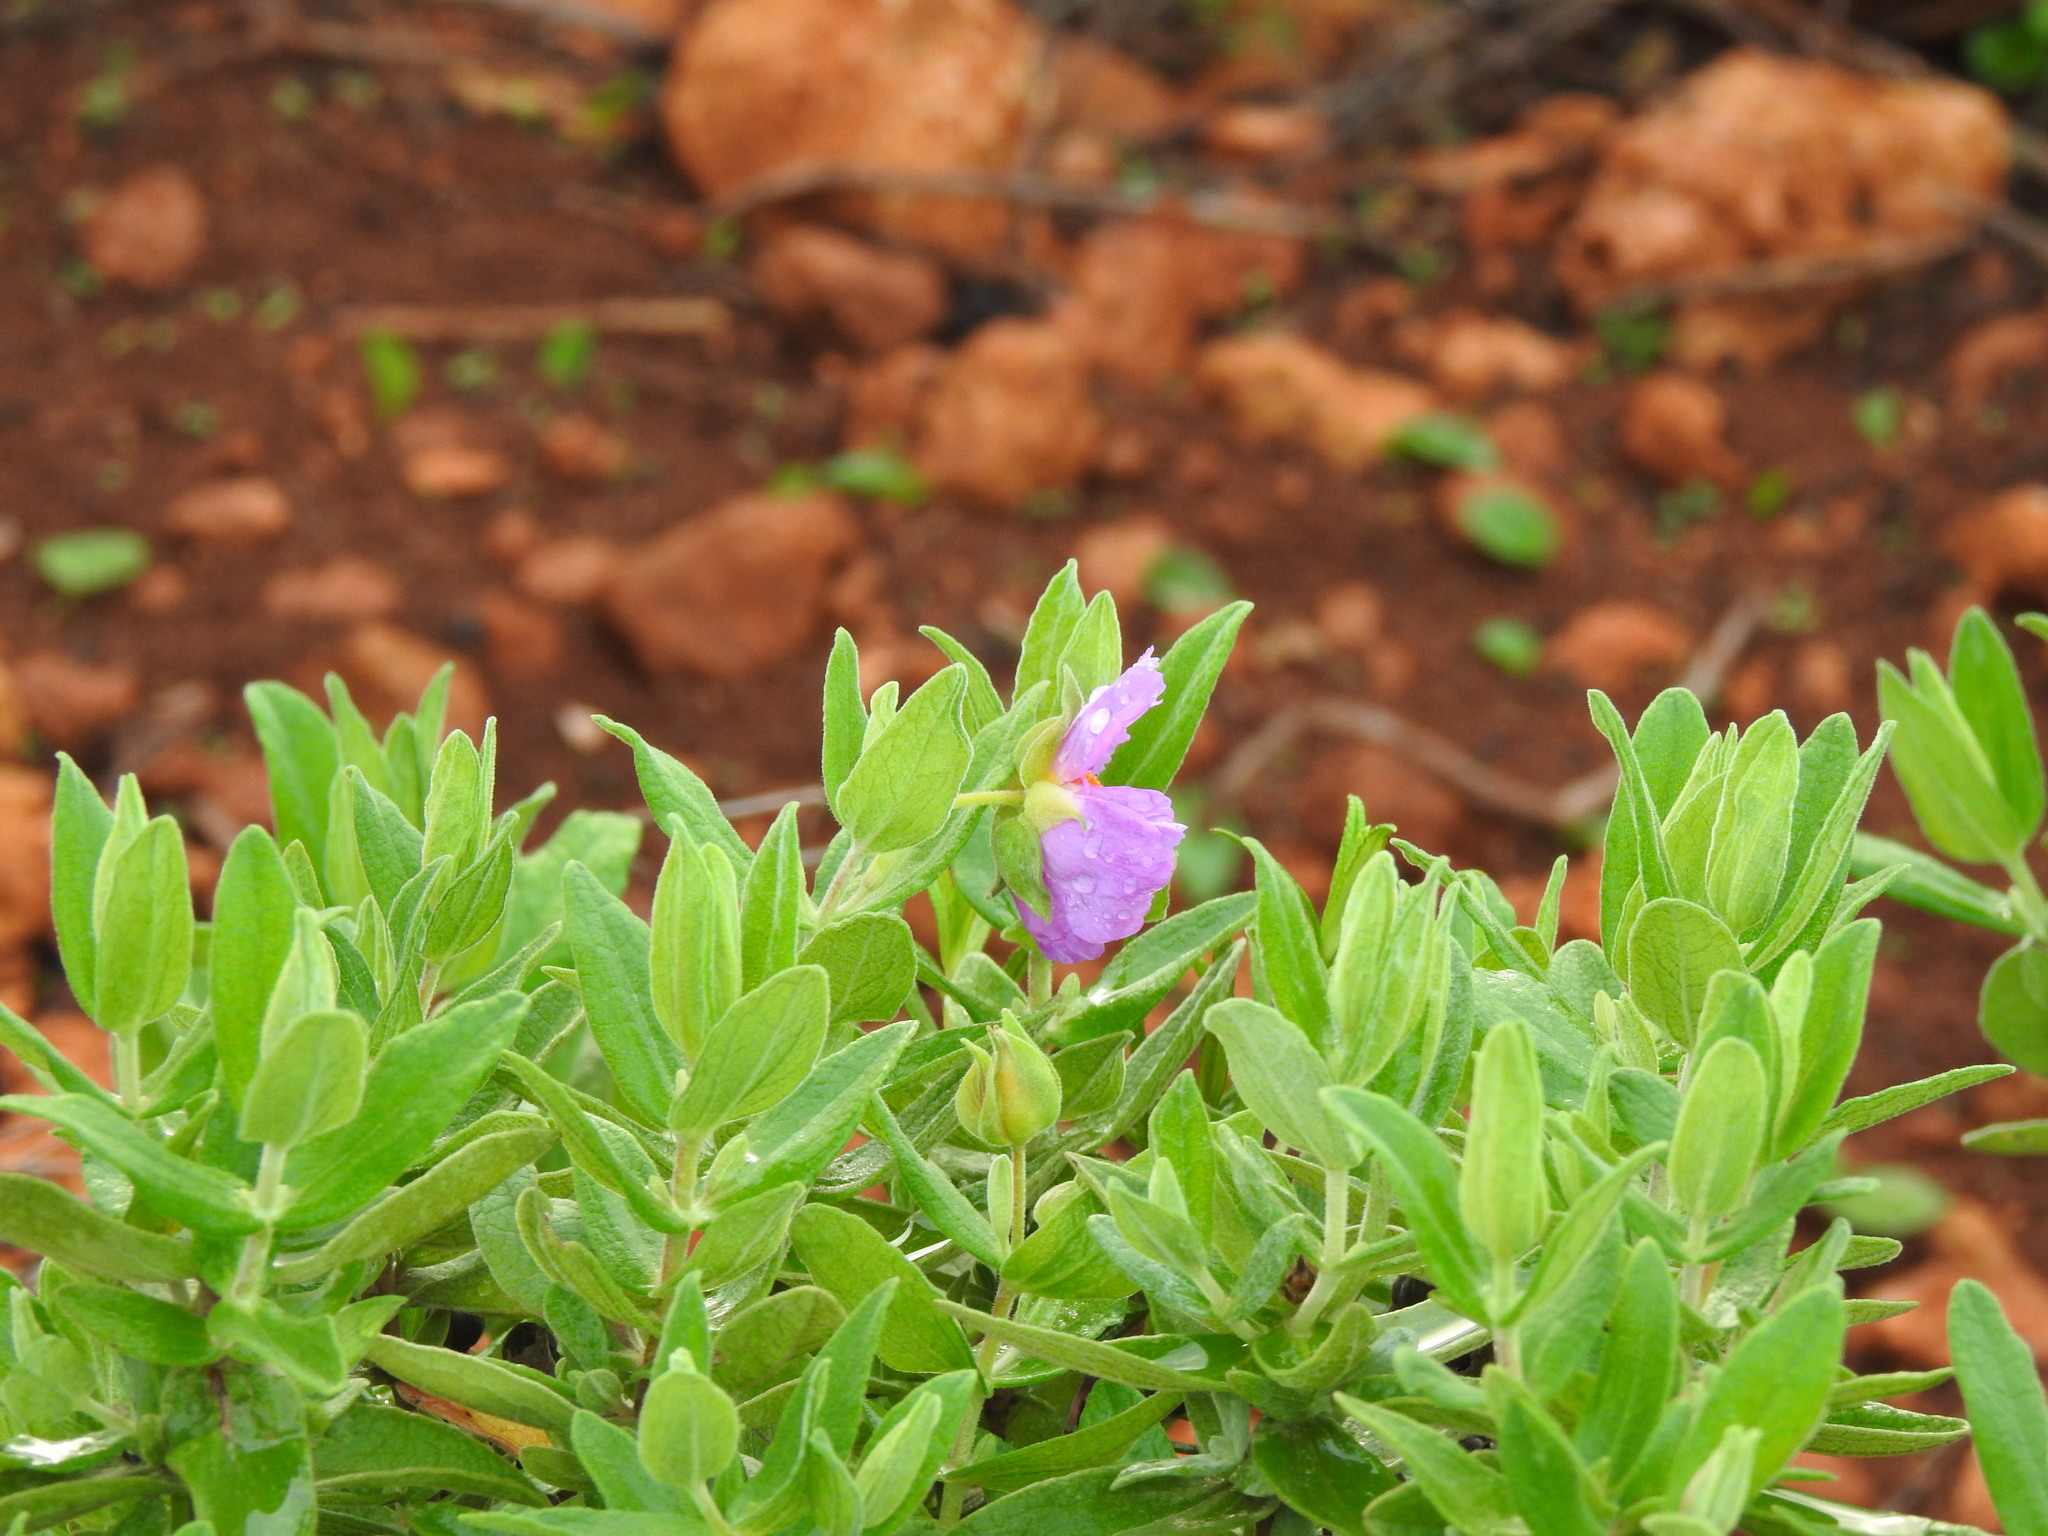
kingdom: Plantae
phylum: Tracheophyta
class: Magnoliopsida
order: Malvales
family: Cistaceae
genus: Cistus
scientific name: Cistus albidus
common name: White-leaf rock-rose
